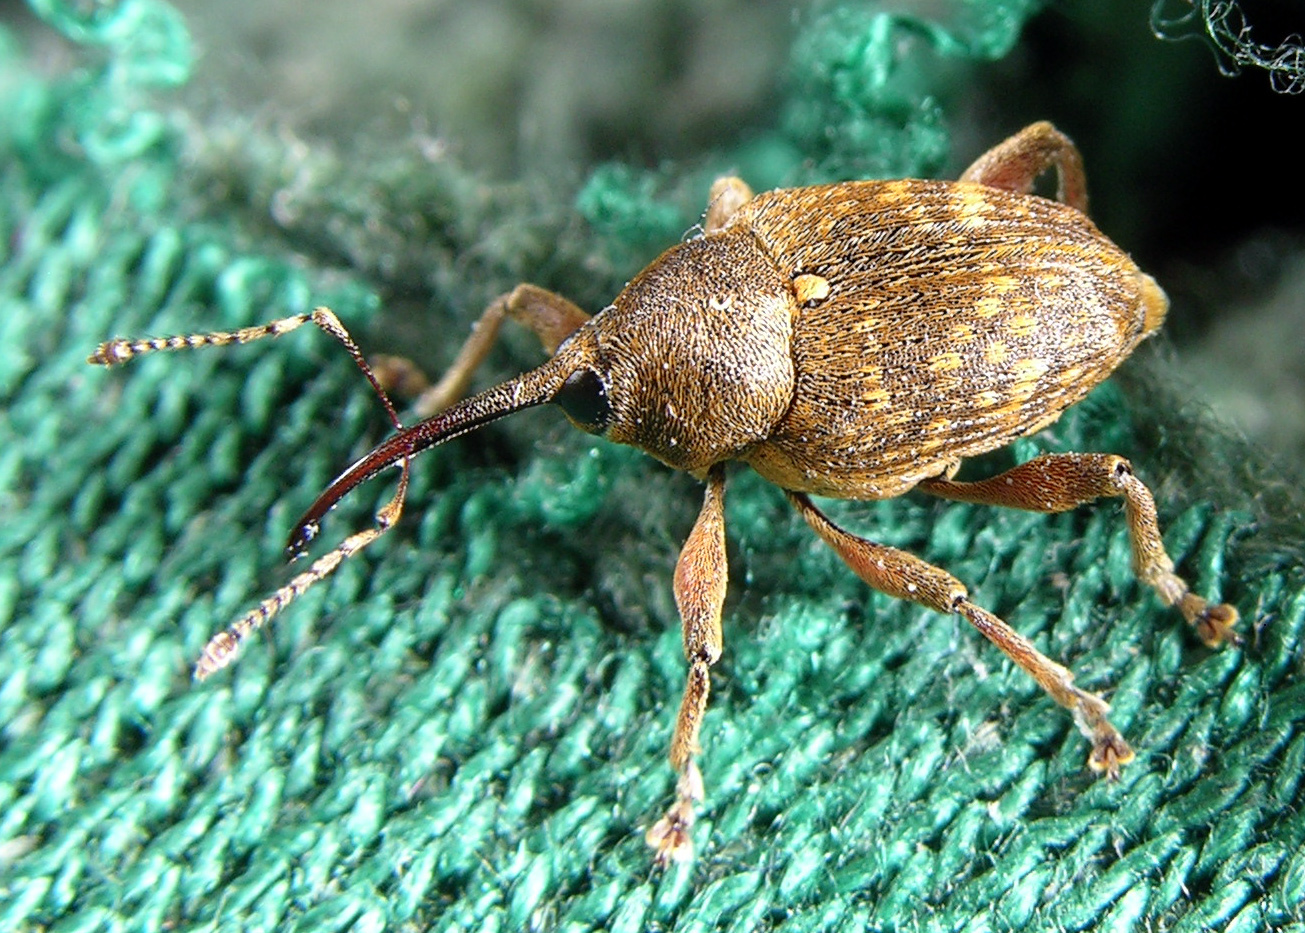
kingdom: Animalia
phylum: Arthropoda
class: Insecta
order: Coleoptera
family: Curculionidae
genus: Curculio
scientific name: Curculio nucum
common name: Nut weevil
